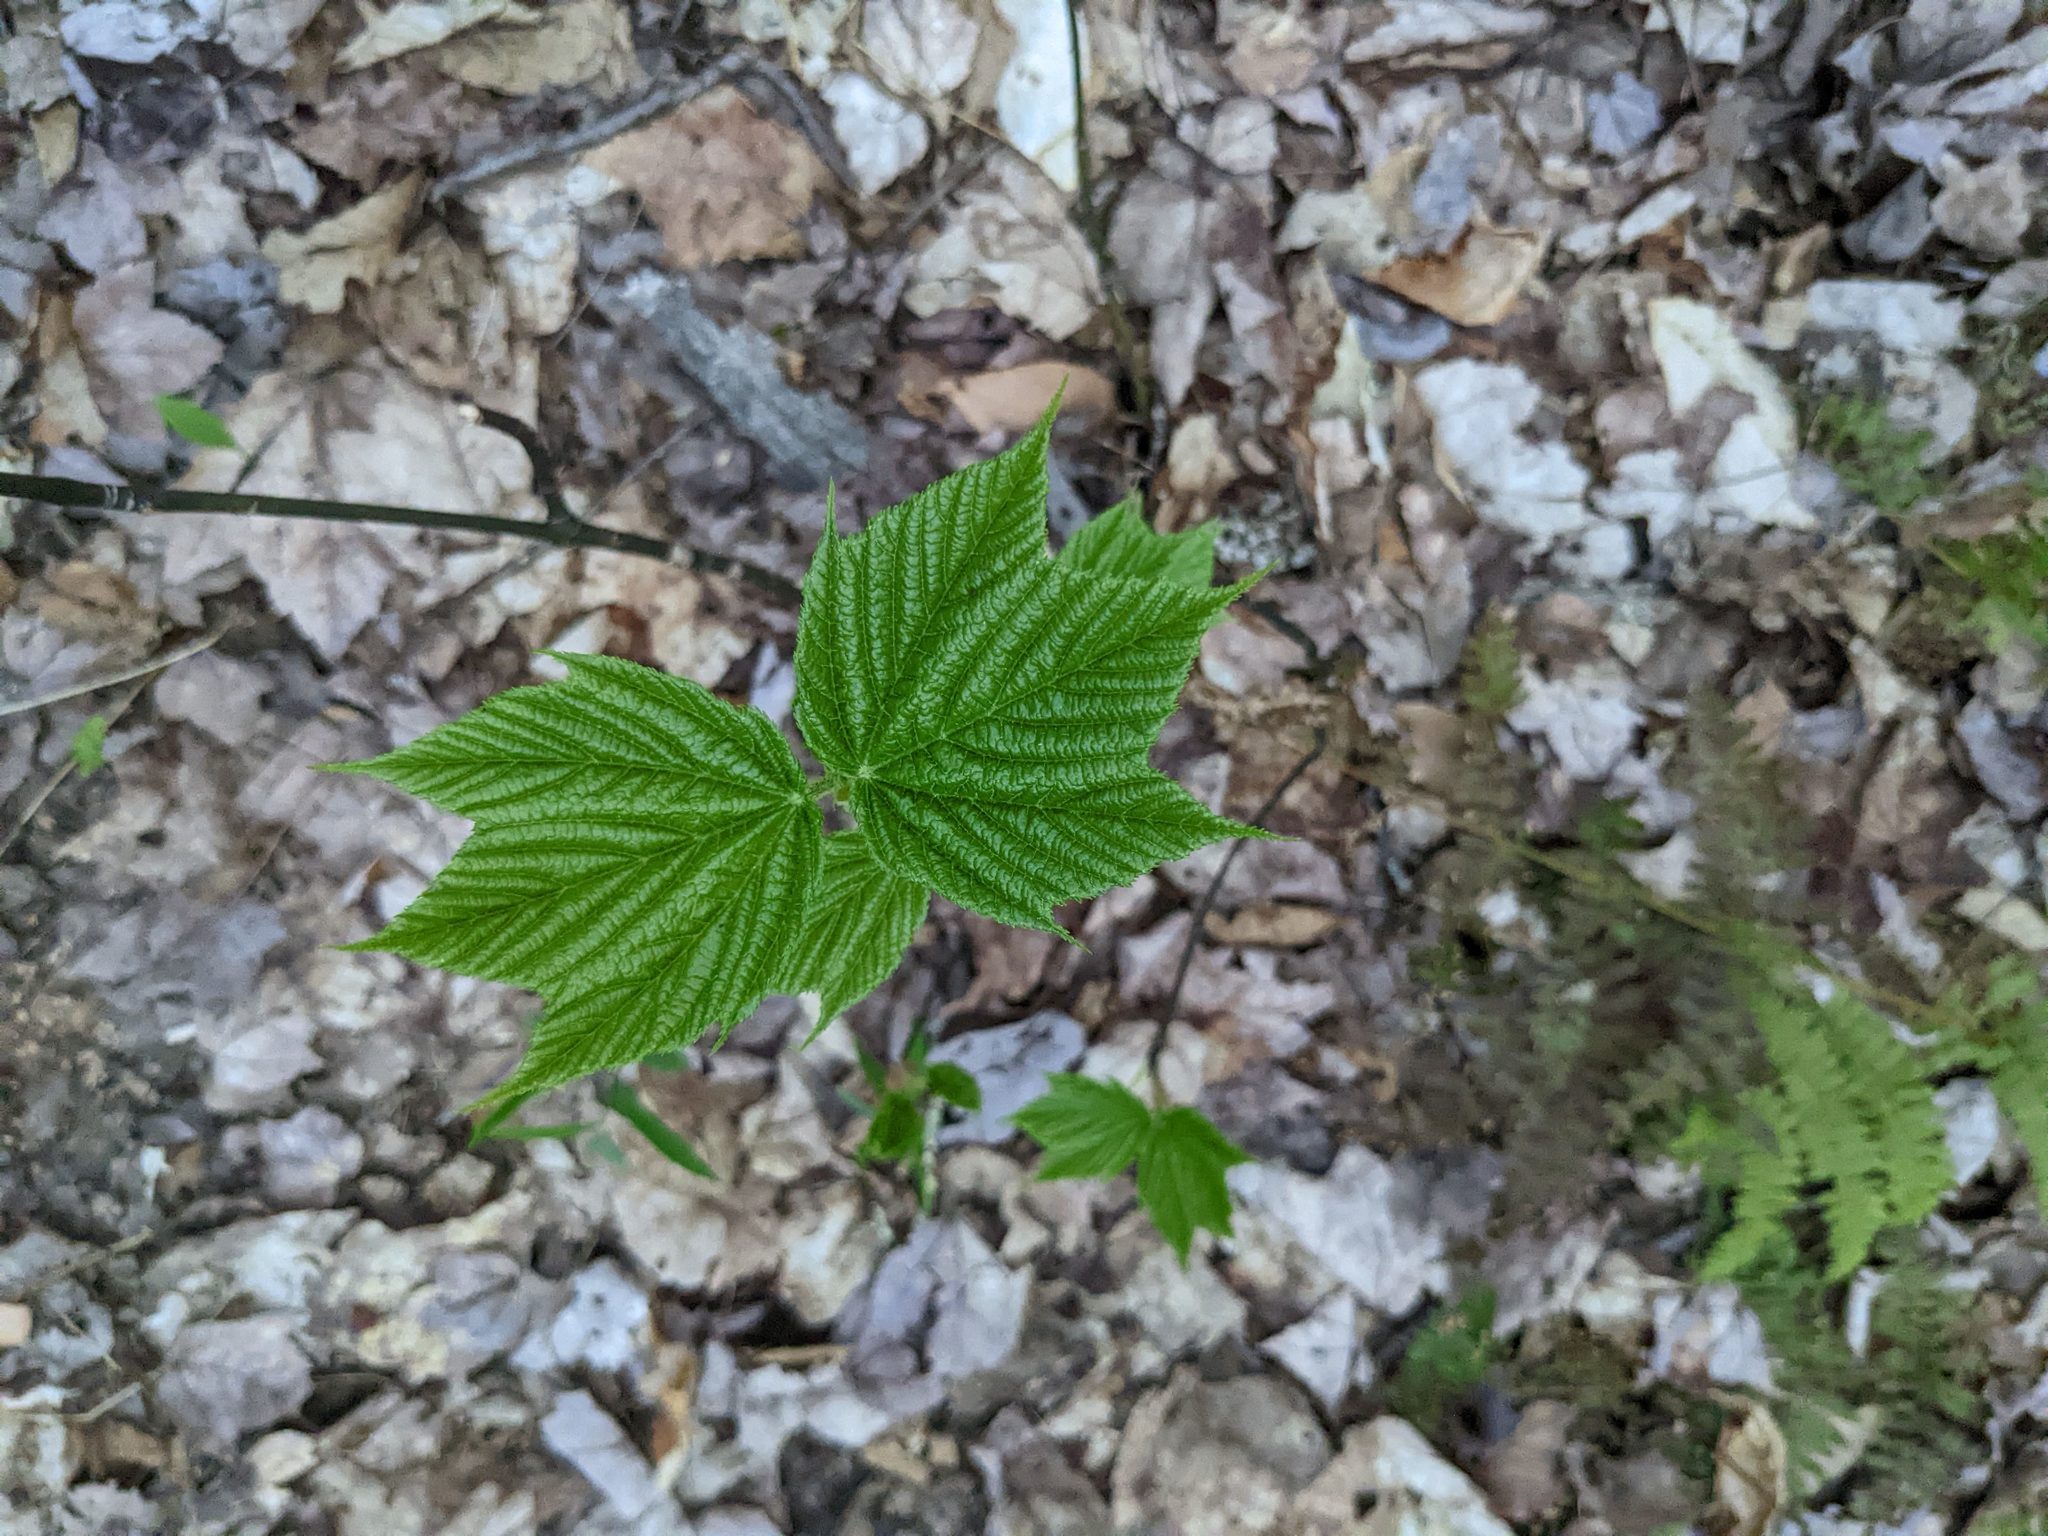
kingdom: Plantae
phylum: Tracheophyta
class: Magnoliopsida
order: Sapindales
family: Sapindaceae
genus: Acer
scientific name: Acer pensylvanicum
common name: Moosewood
